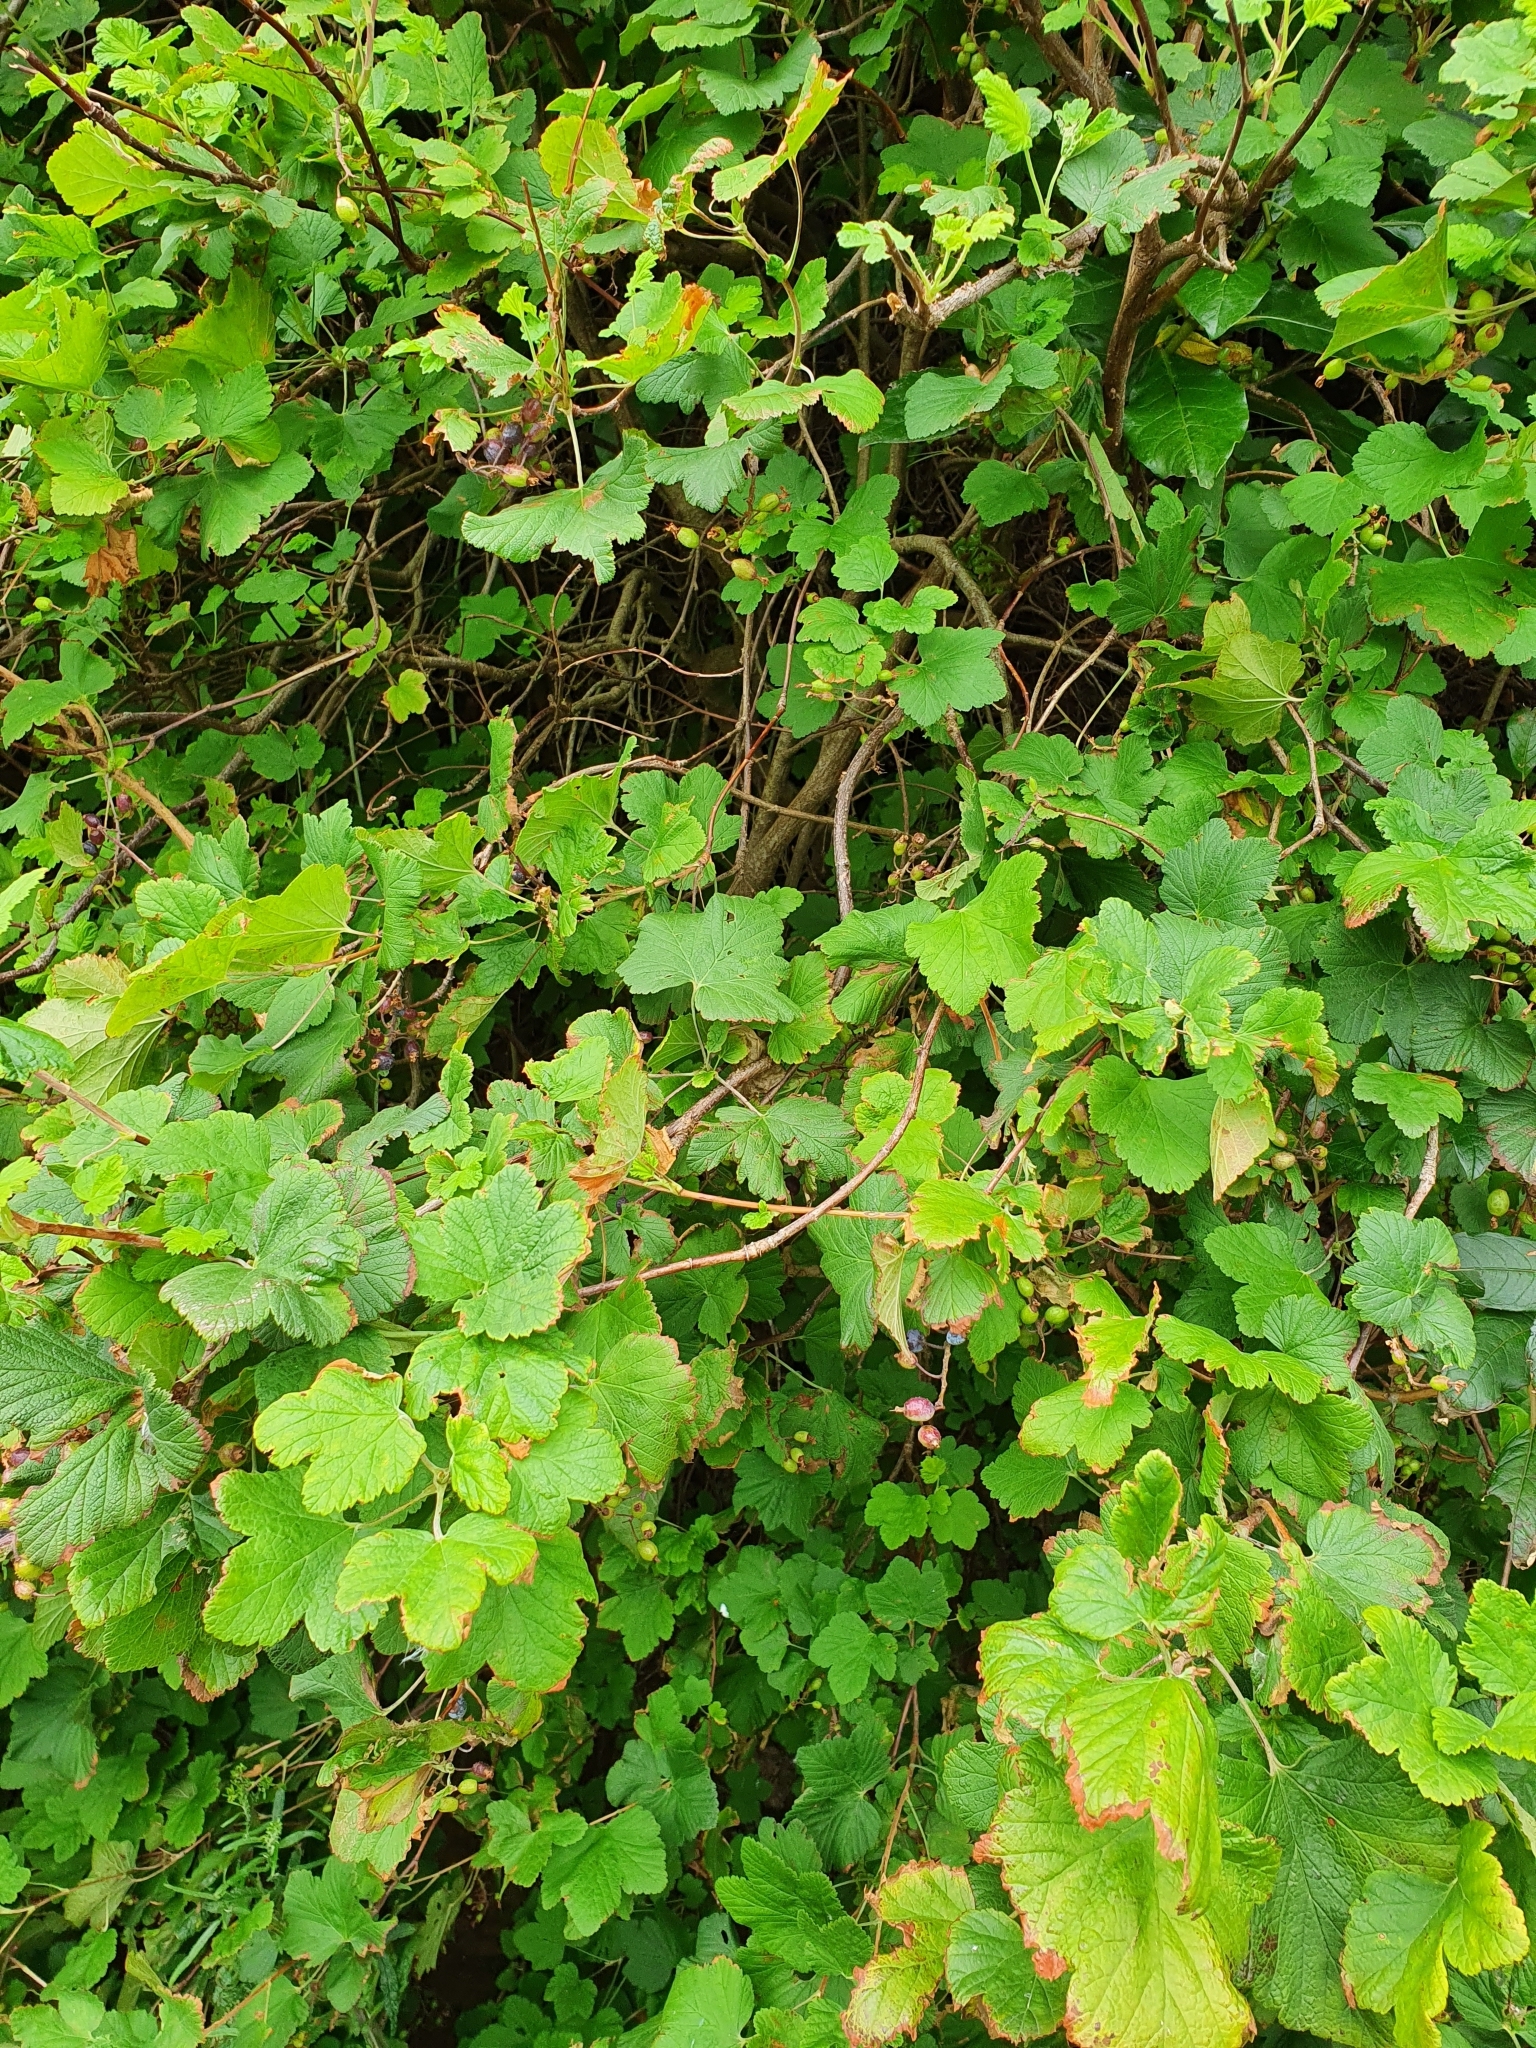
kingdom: Plantae
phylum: Tracheophyta
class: Magnoliopsida
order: Saxifragales
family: Grossulariaceae
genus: Ribes
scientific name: Ribes sanguineum
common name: Flowering currant
